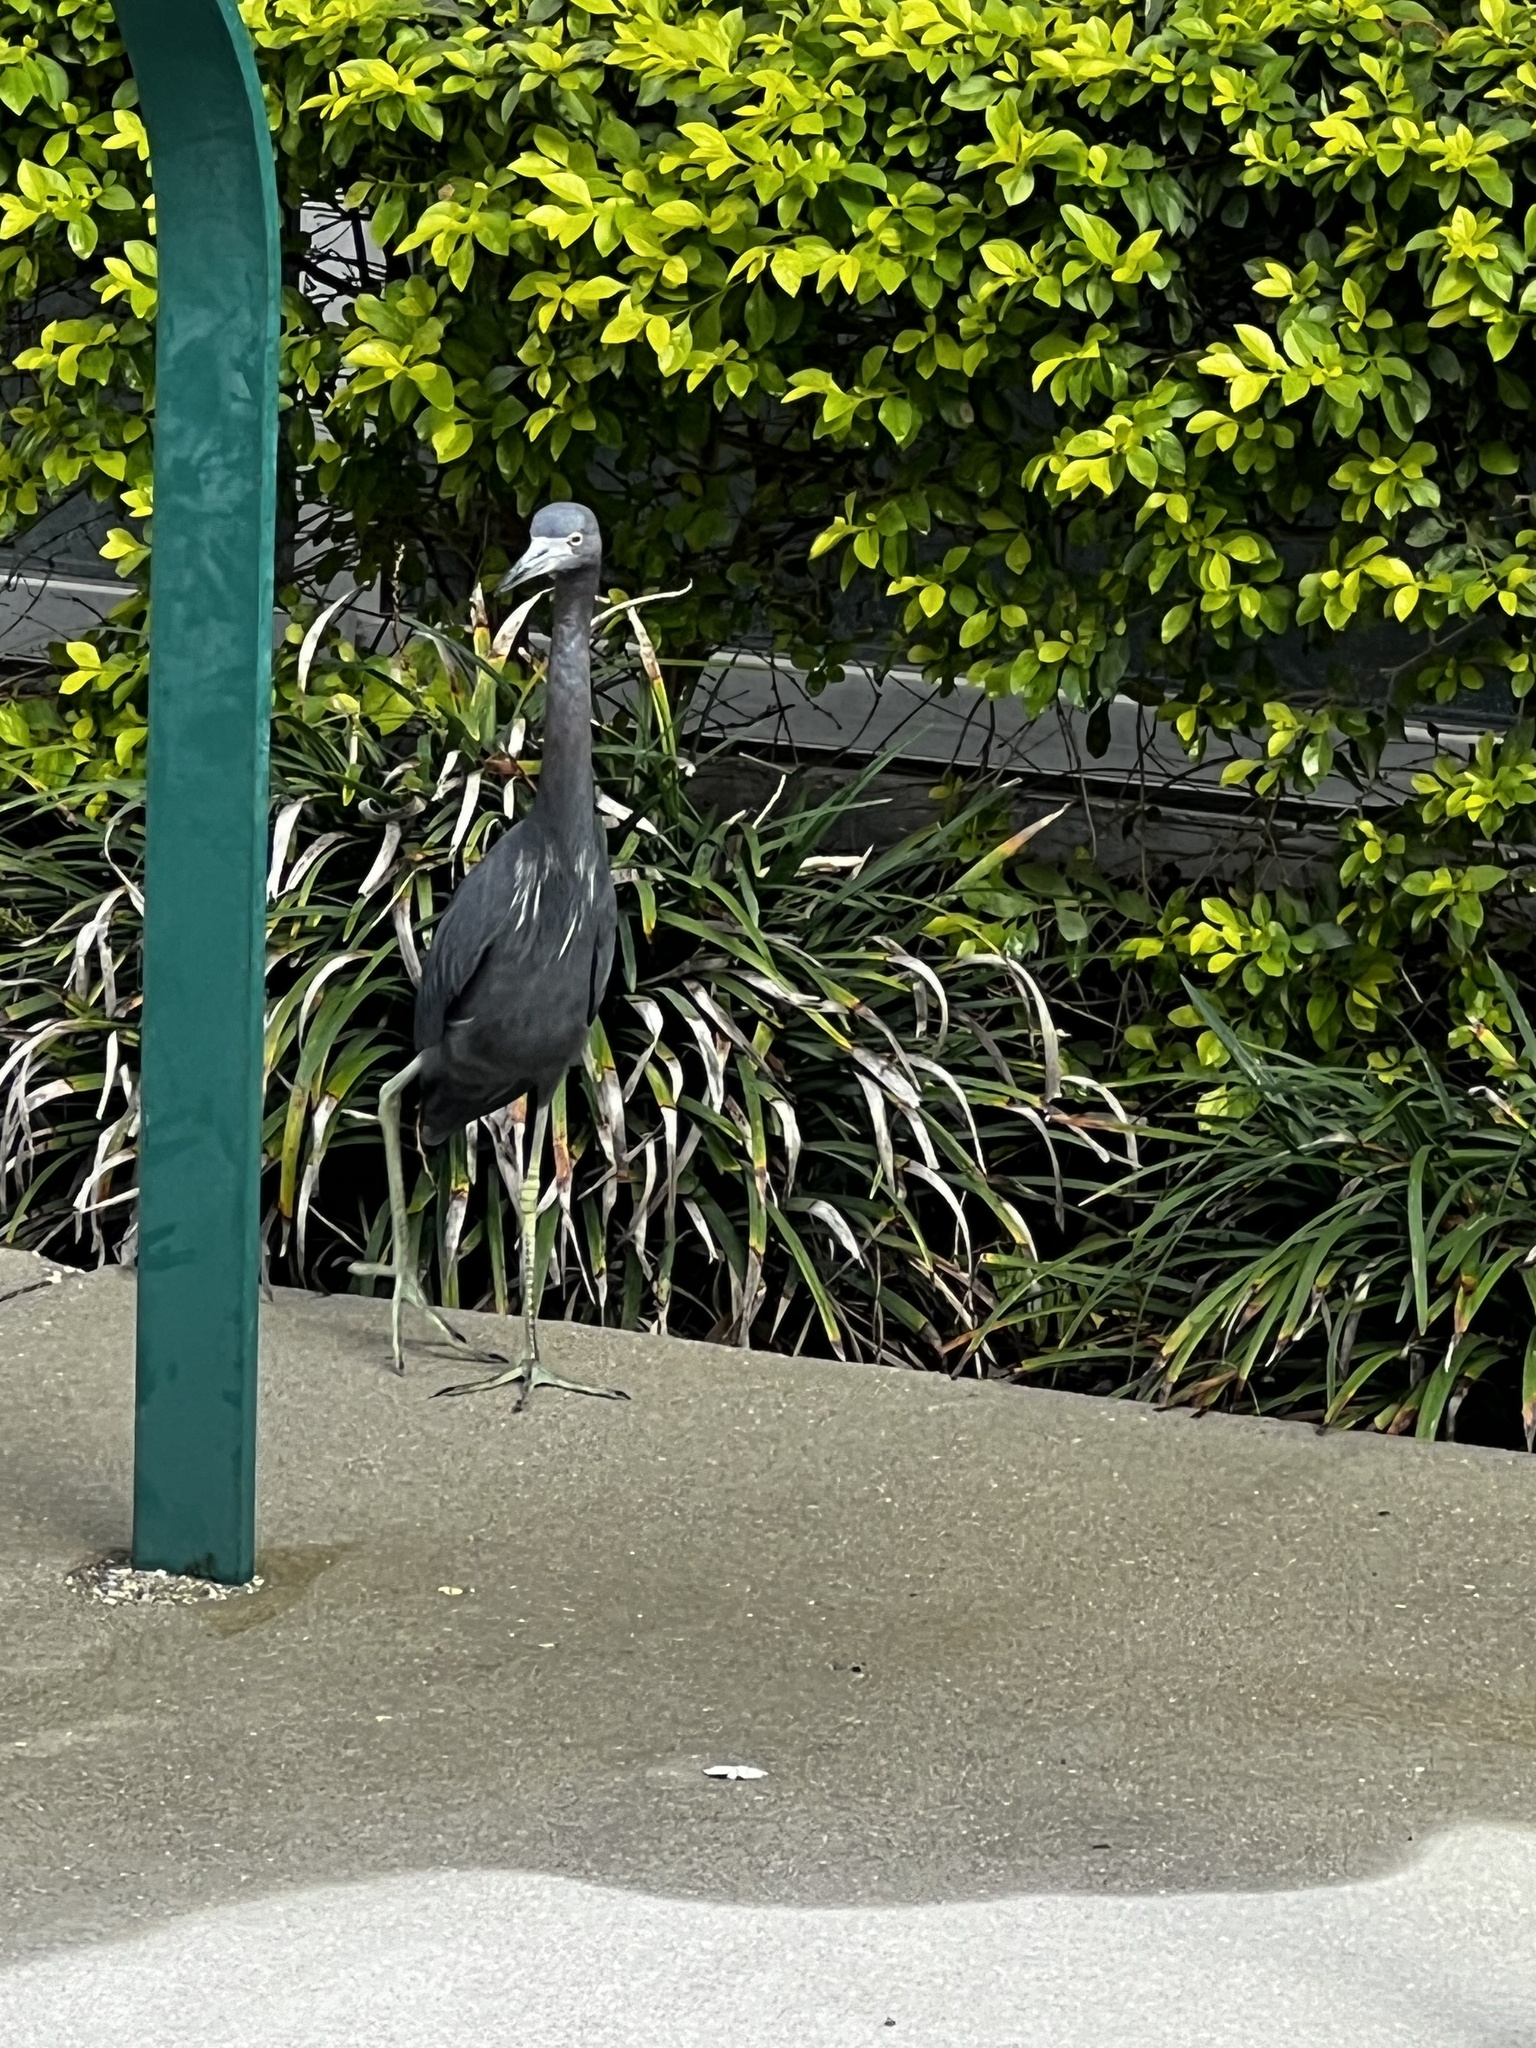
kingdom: Animalia
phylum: Chordata
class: Aves
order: Pelecaniformes
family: Ardeidae
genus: Egretta
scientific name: Egretta caerulea
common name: Little blue heron
